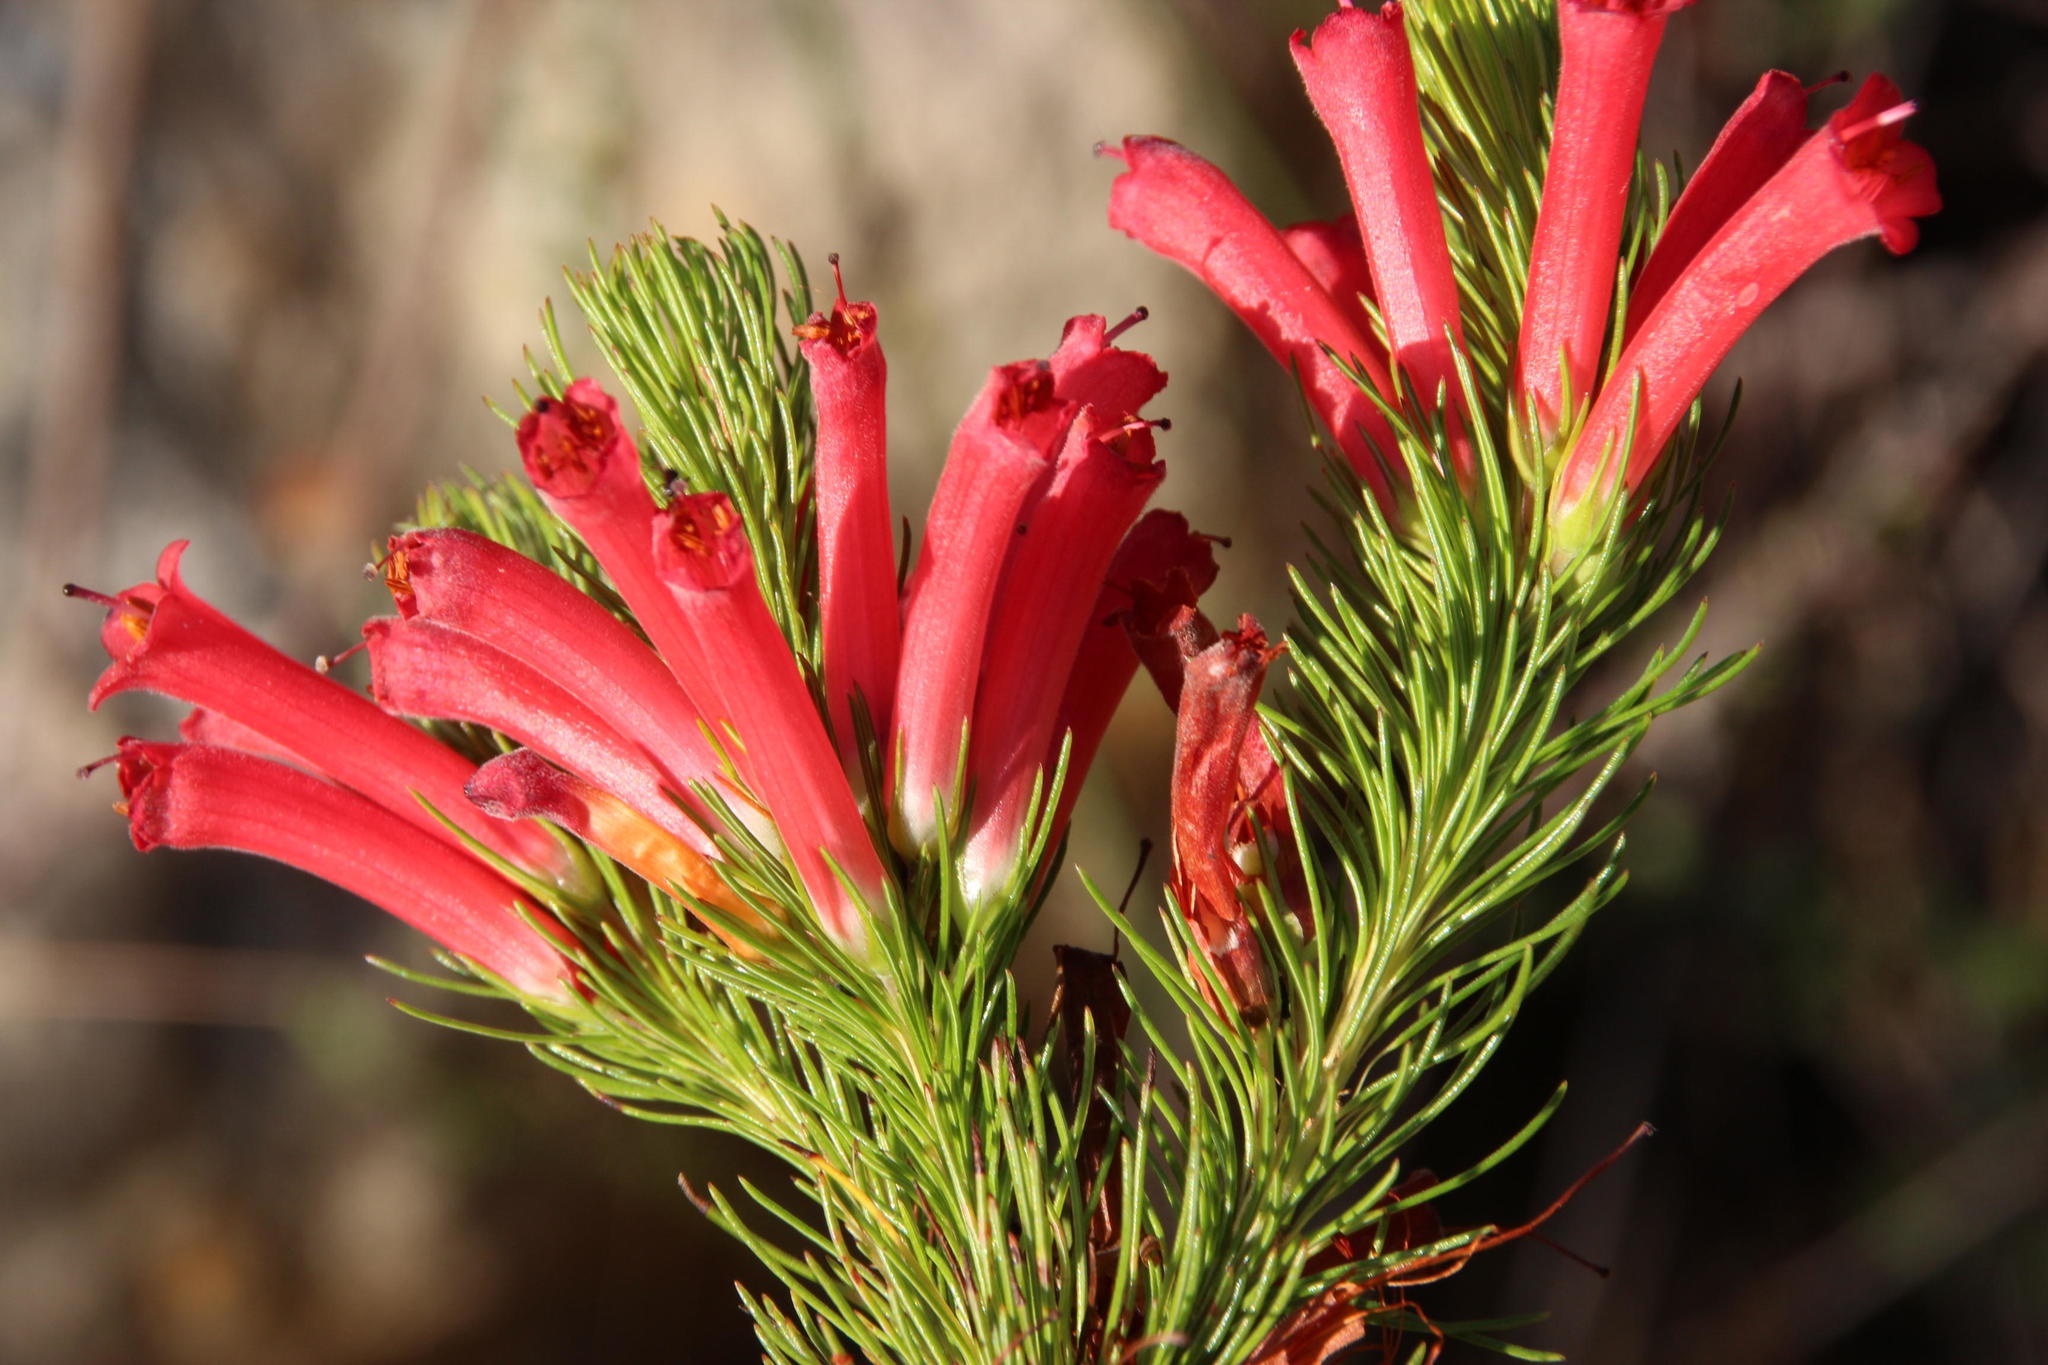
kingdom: Plantae
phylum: Tracheophyta
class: Magnoliopsida
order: Ericales
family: Ericaceae
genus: Erica
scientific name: Erica vestita
